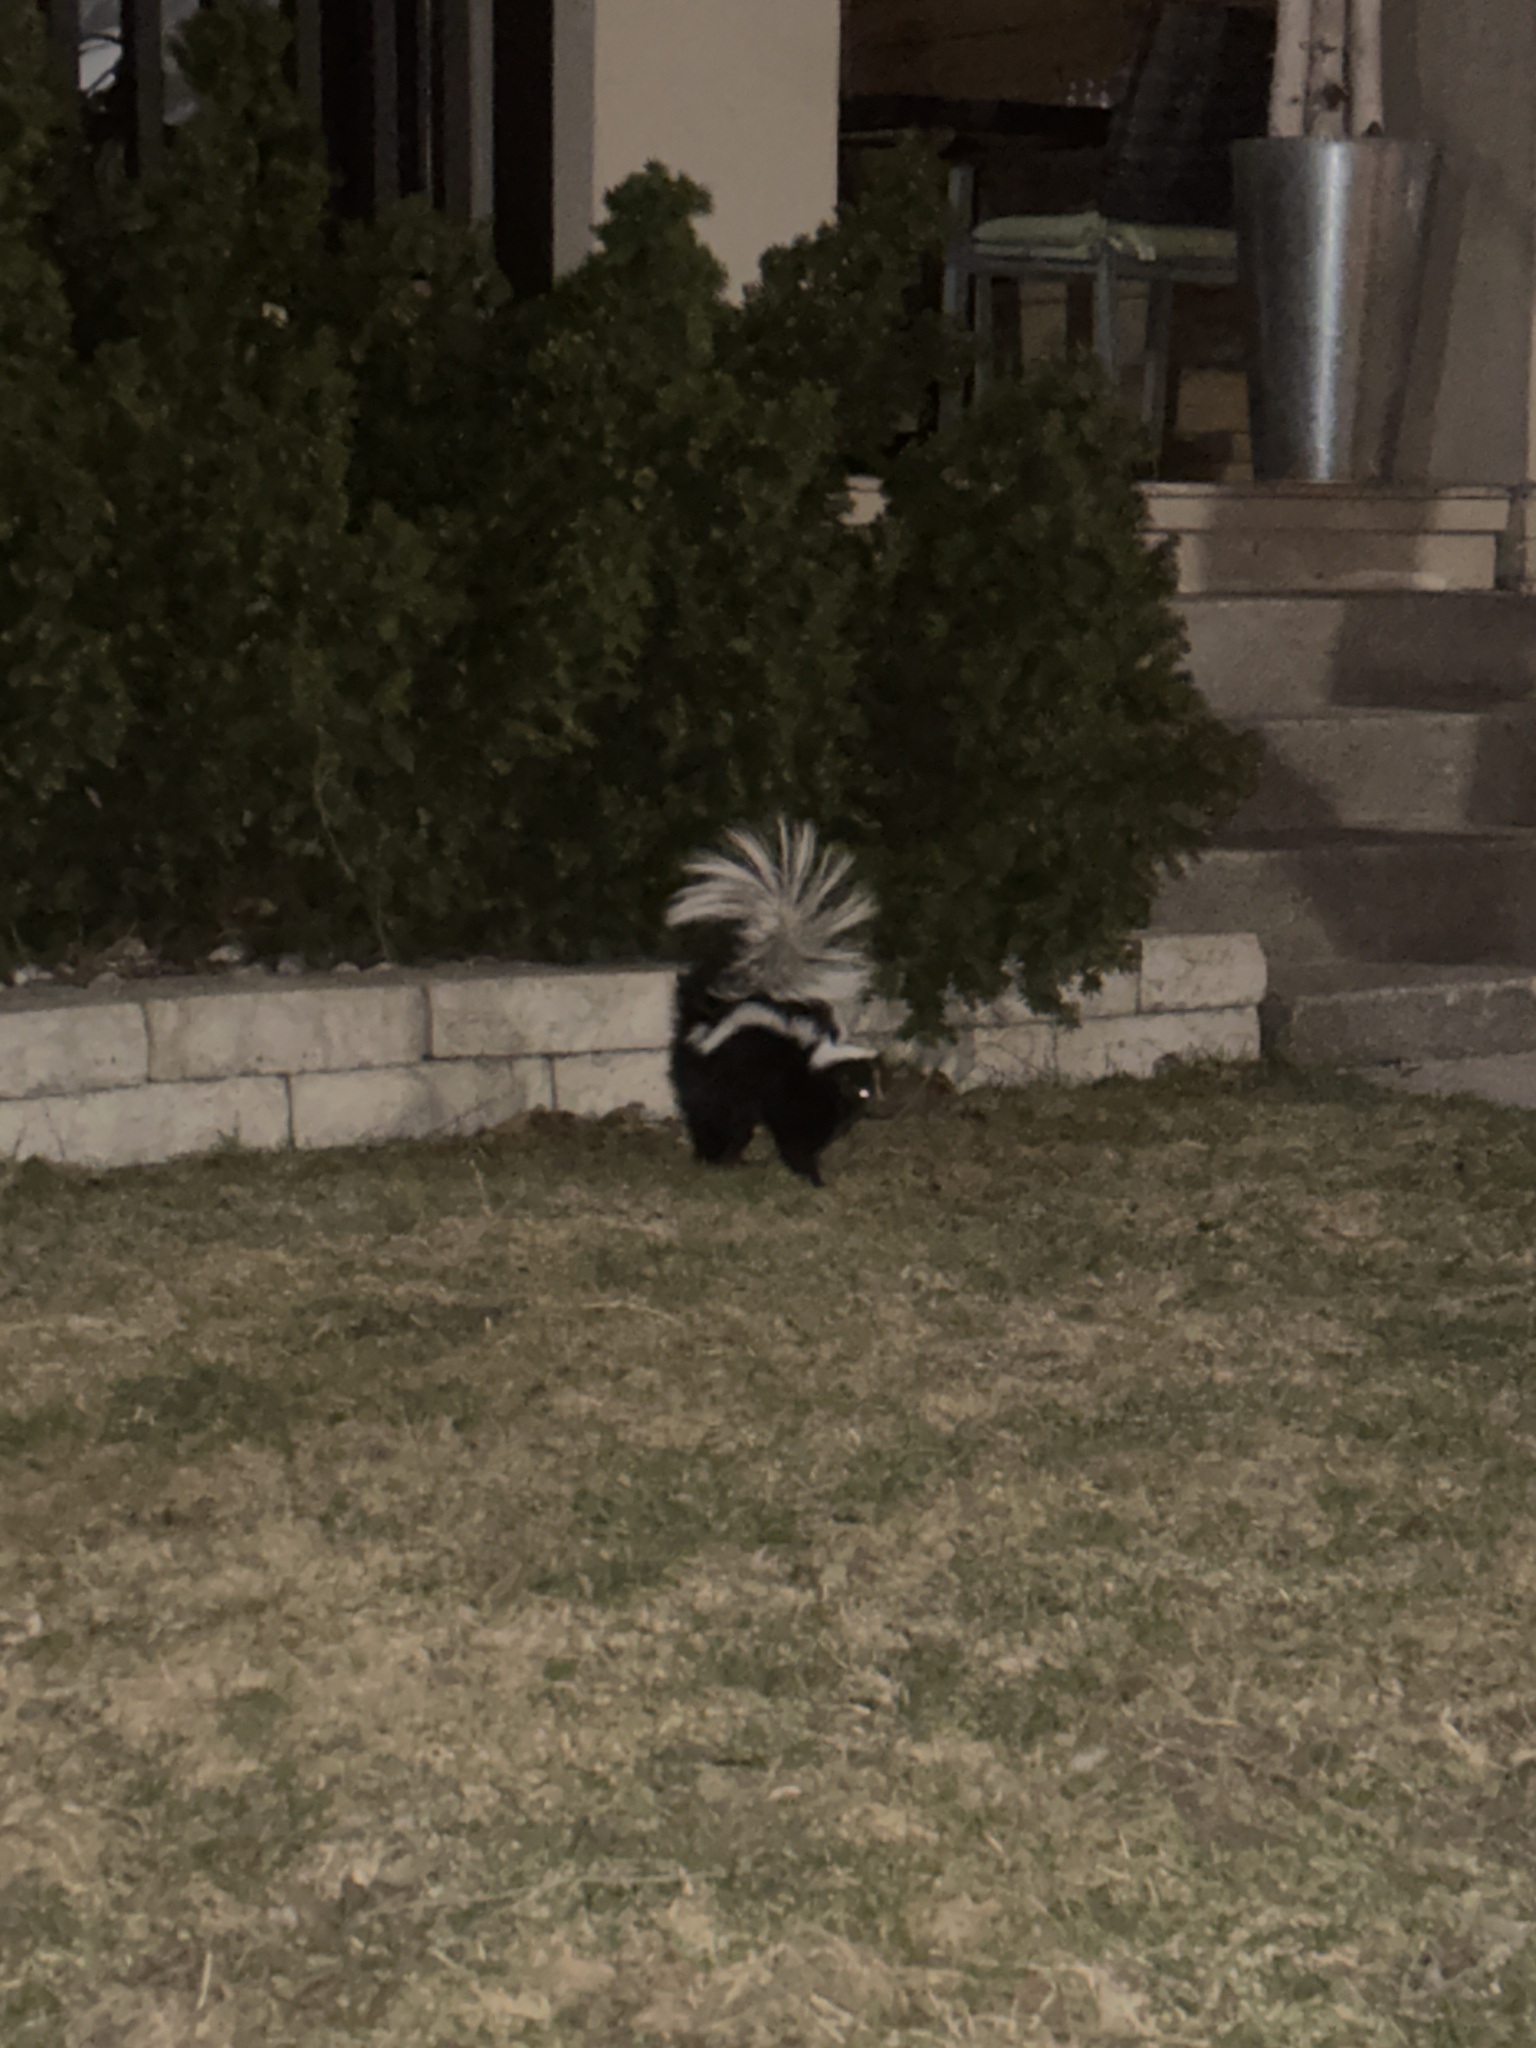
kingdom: Animalia
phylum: Chordata
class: Mammalia
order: Carnivora
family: Mephitidae
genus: Mephitis
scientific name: Mephitis mephitis
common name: Striped skunk
